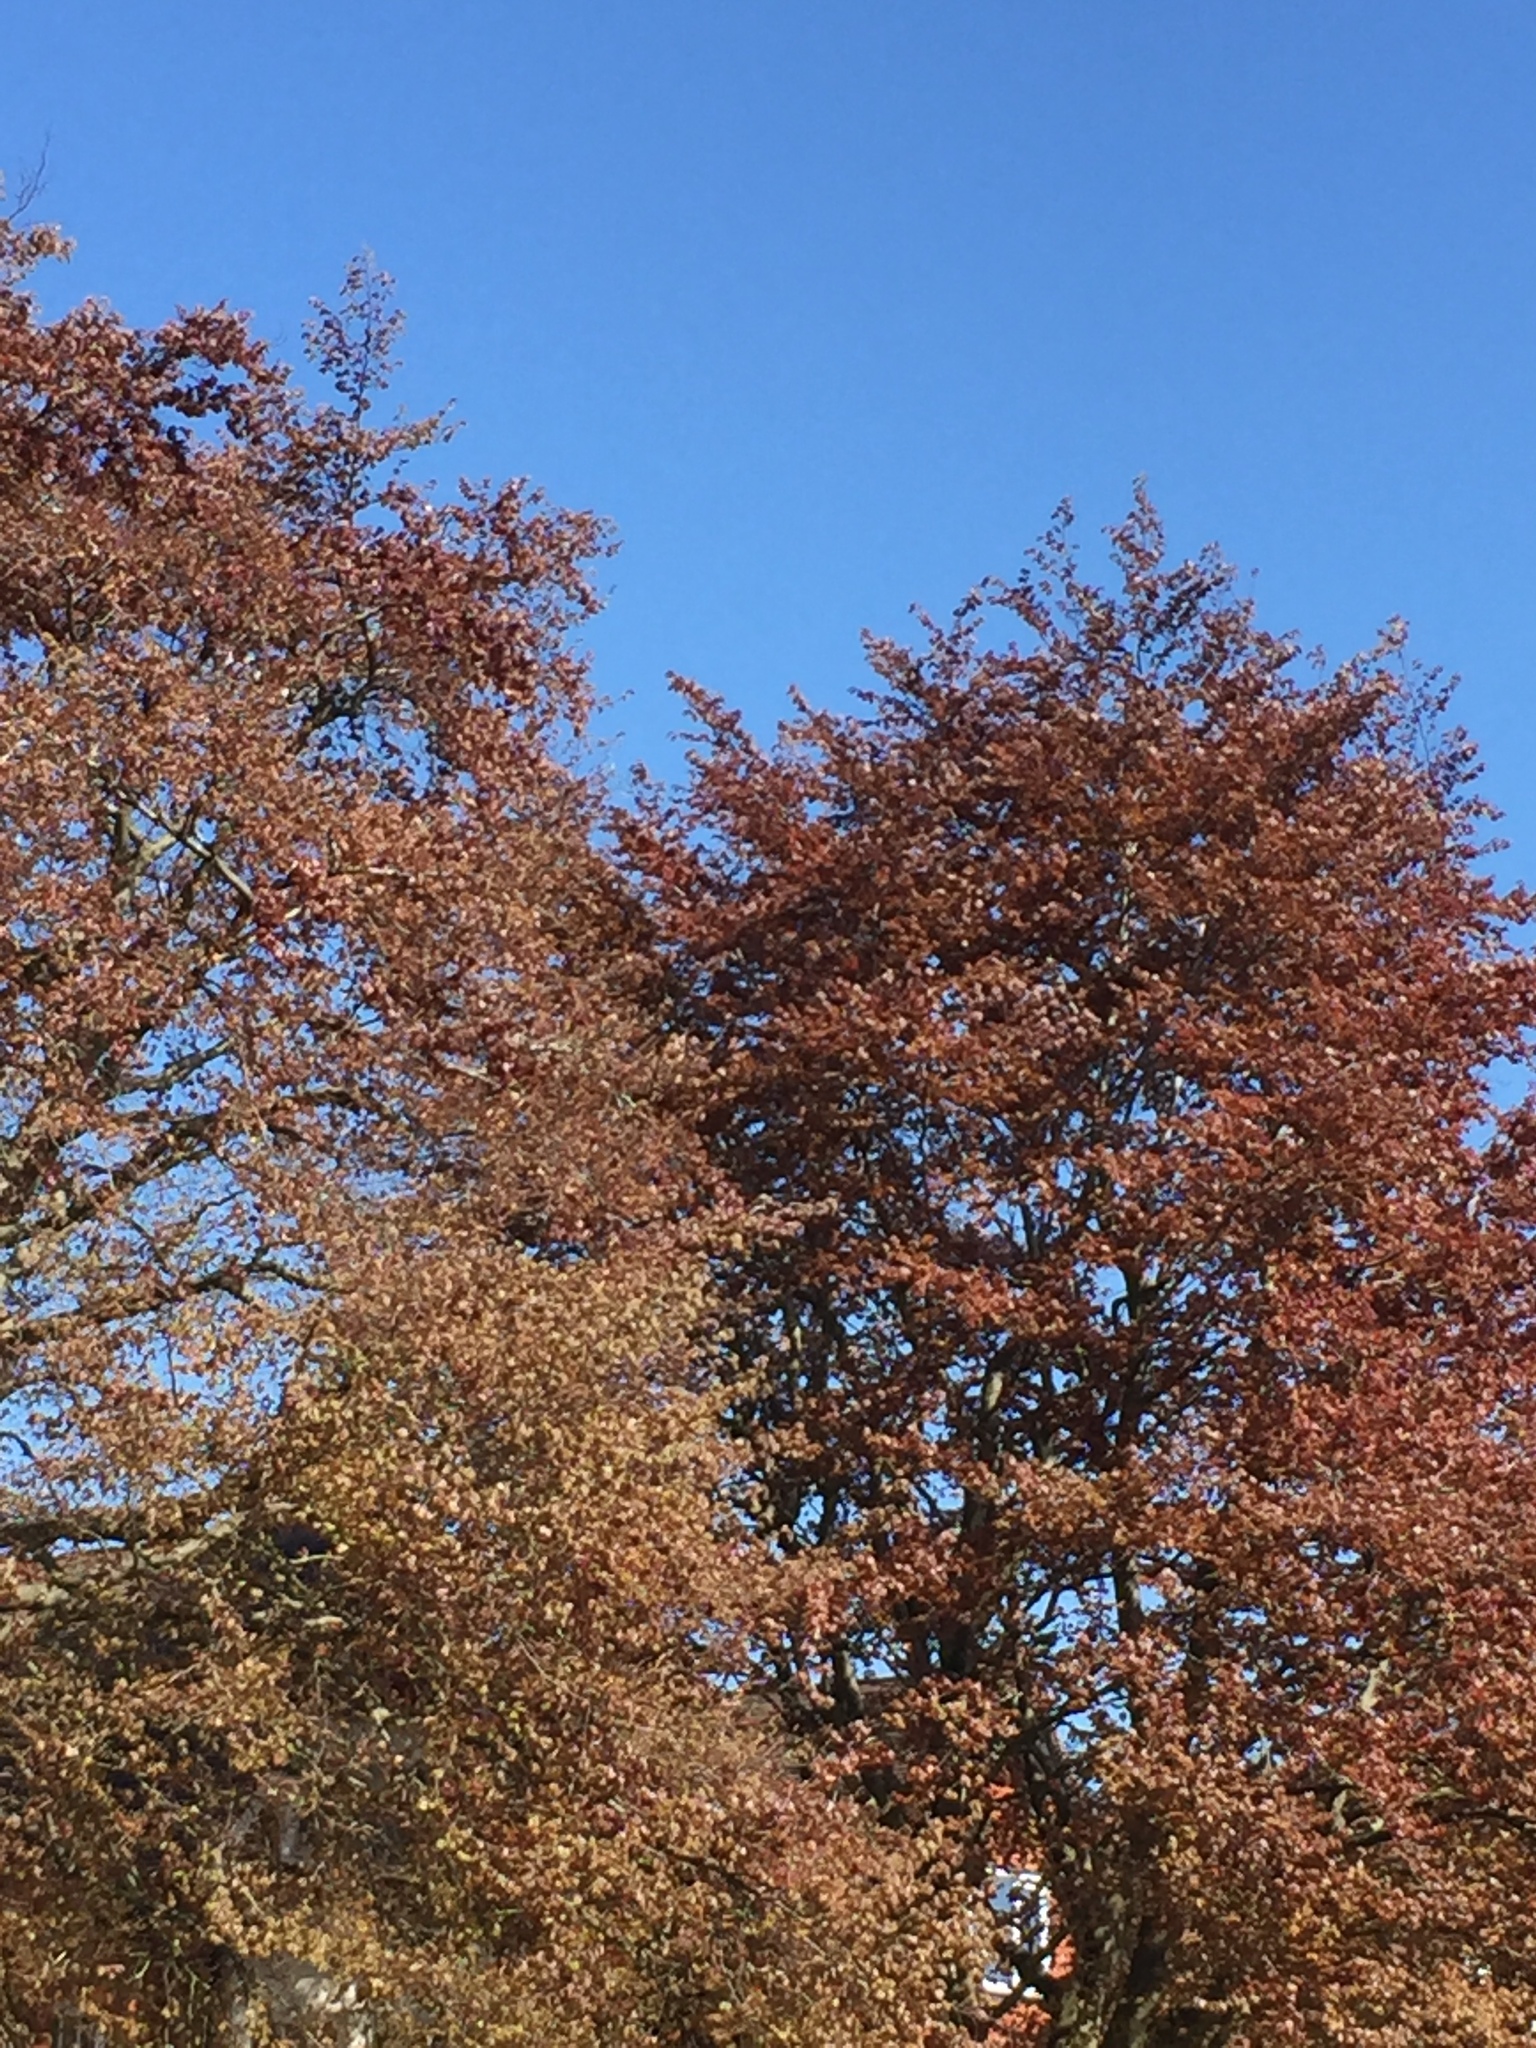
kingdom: Plantae
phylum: Tracheophyta
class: Magnoliopsida
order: Fagales
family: Fagaceae
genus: Fagus
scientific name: Fagus sylvatica
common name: Beech
